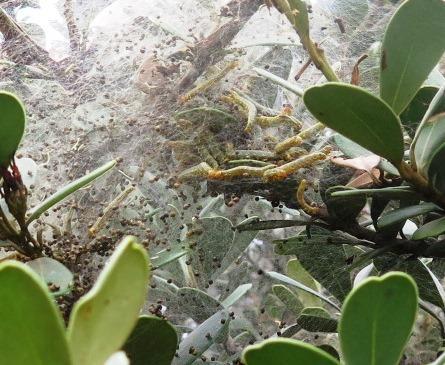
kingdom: Animalia
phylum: Arthropoda
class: Insecta
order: Lepidoptera
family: Pyralidae
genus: Zitha
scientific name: Zitha carnicolor
